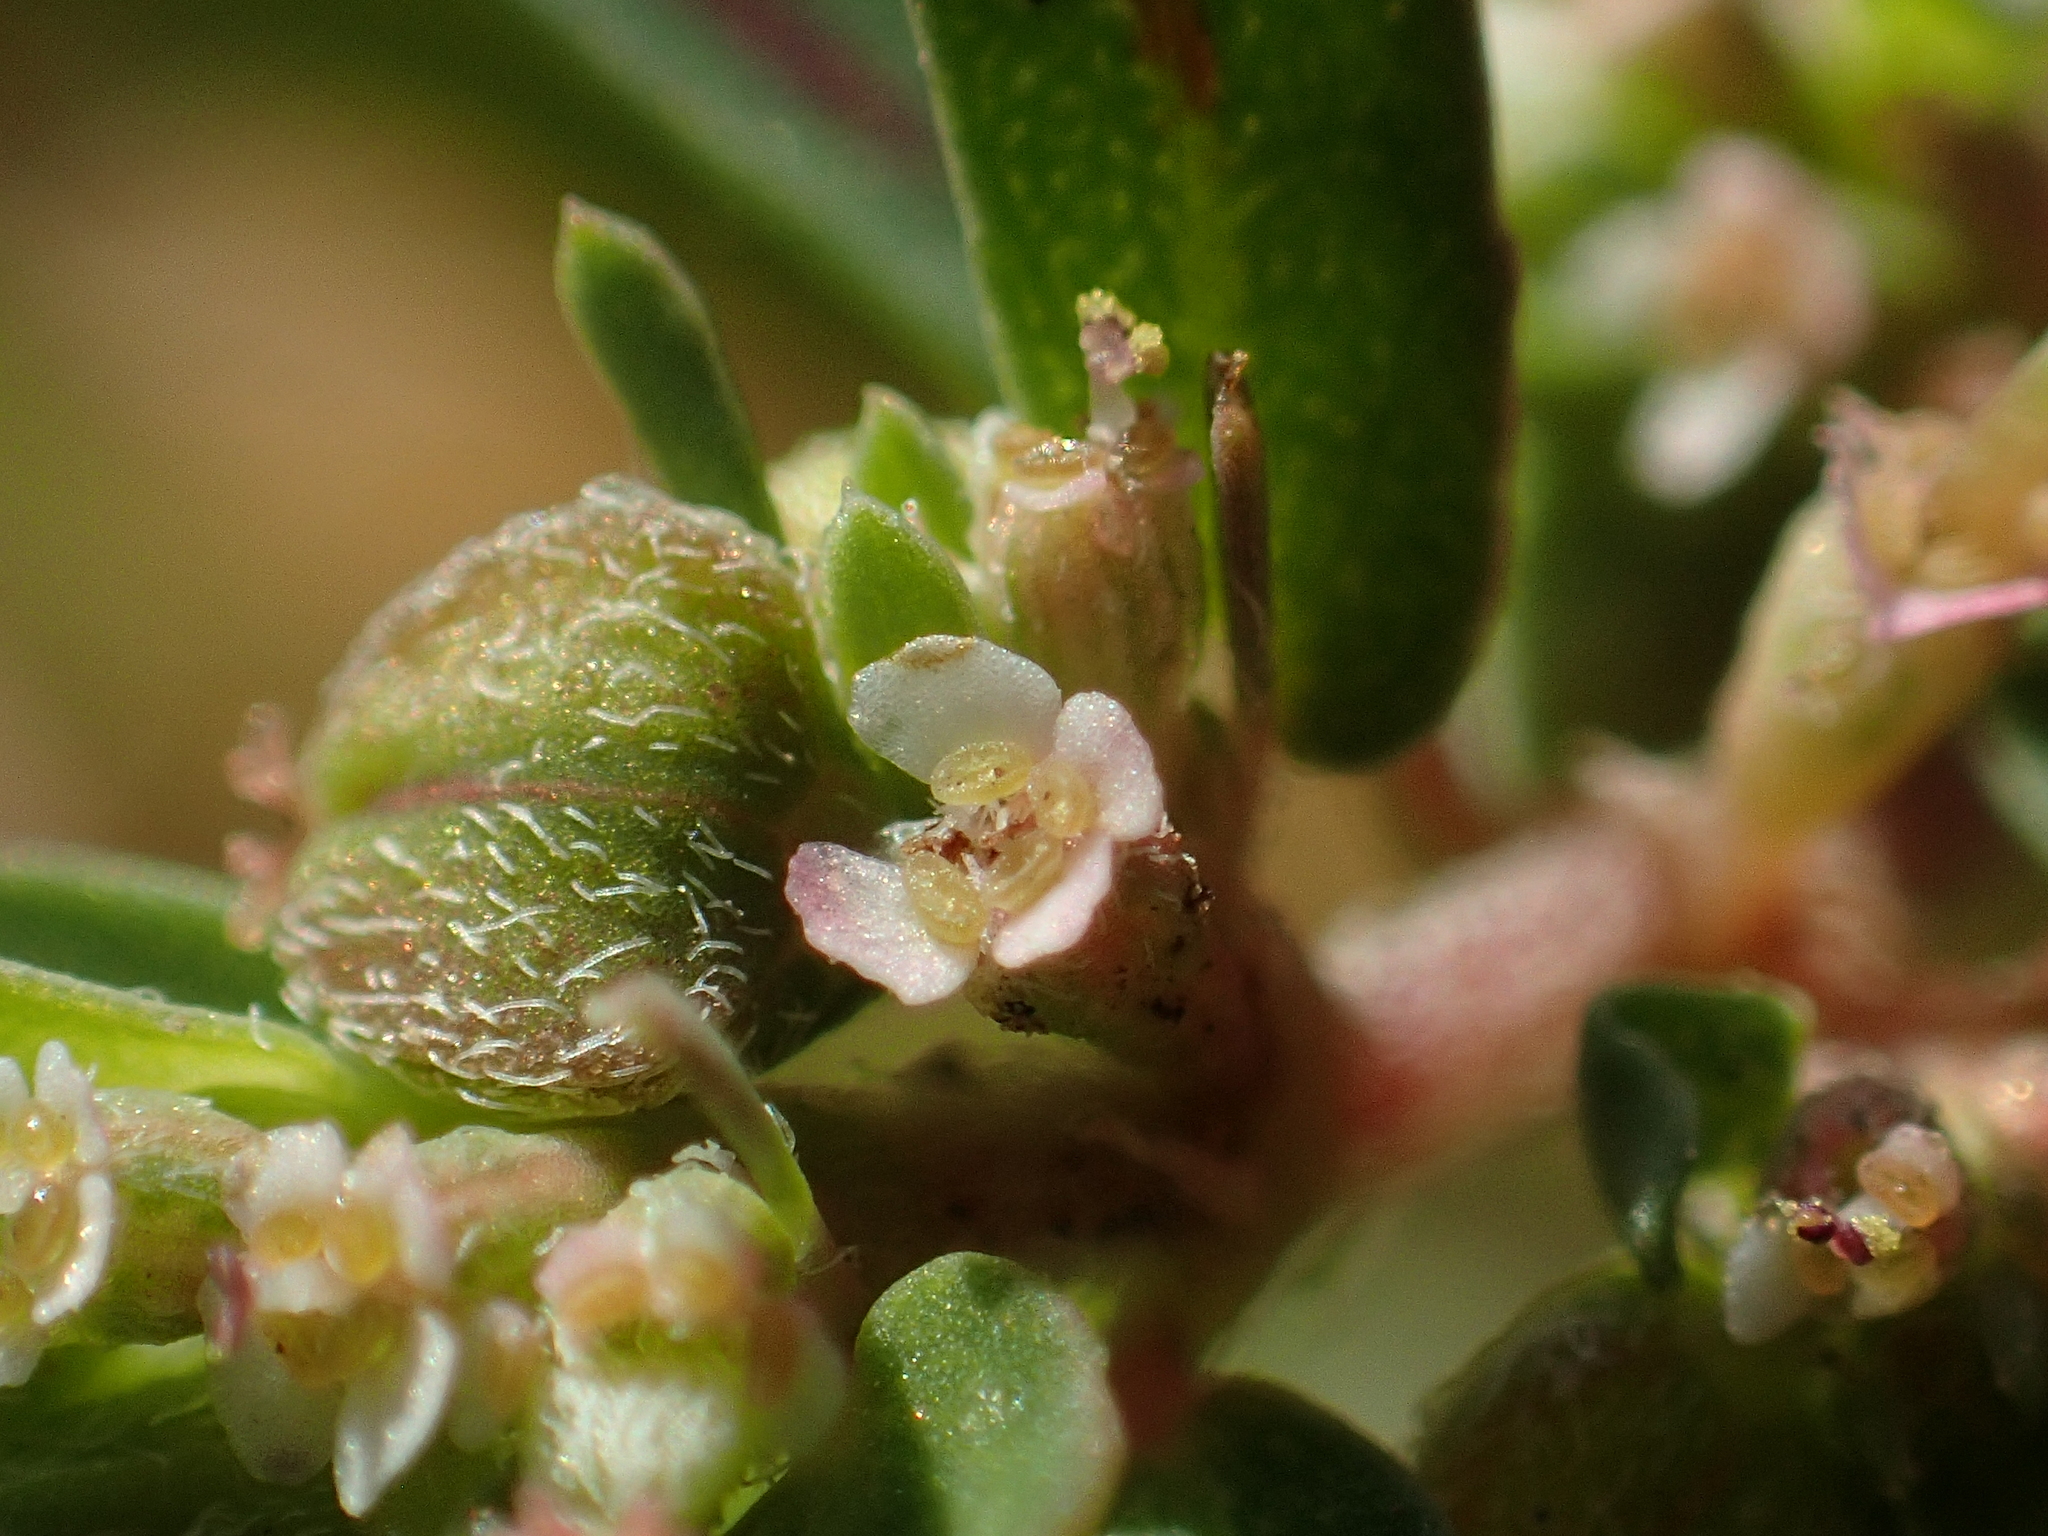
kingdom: Plantae
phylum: Tracheophyta
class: Magnoliopsida
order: Malpighiales
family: Euphorbiaceae
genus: Euphorbia
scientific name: Euphorbia maculata
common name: Spotted spurge
